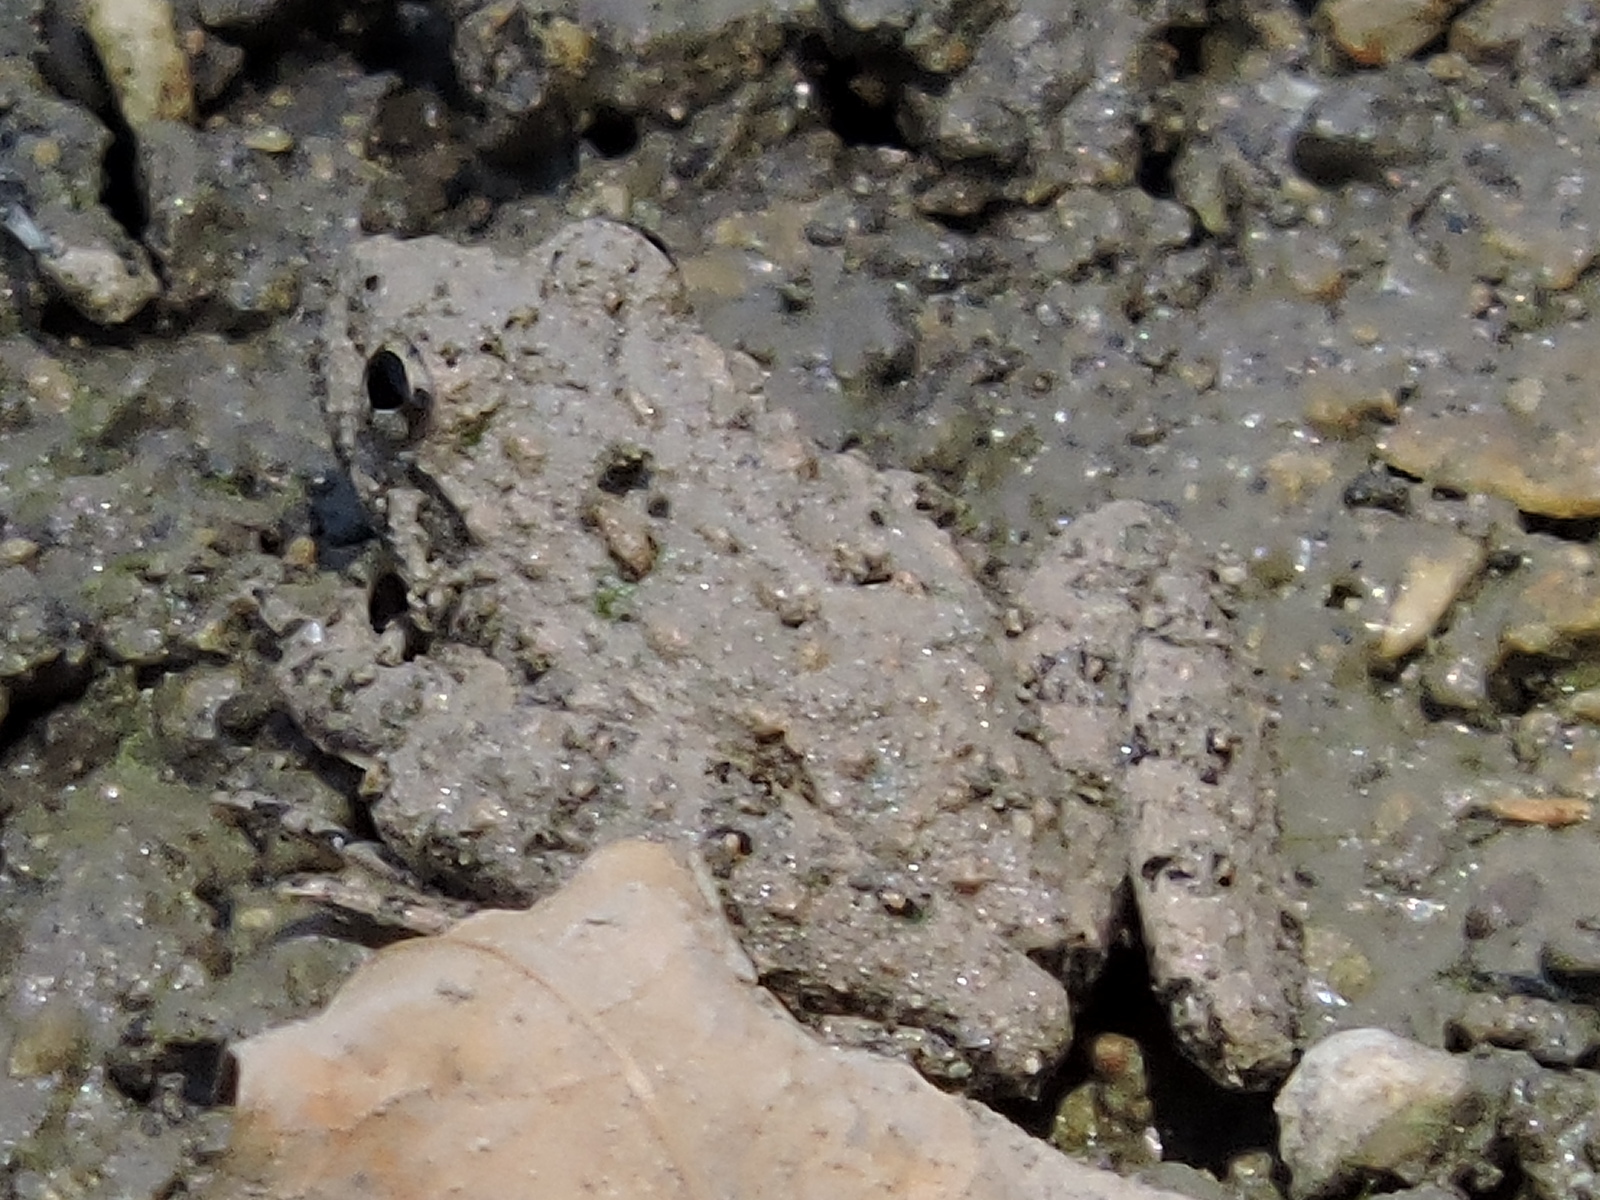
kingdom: Animalia
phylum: Chordata
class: Amphibia
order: Anura
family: Hylidae
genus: Acris
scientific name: Acris blanchardi
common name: Blanchard's cricket frog
